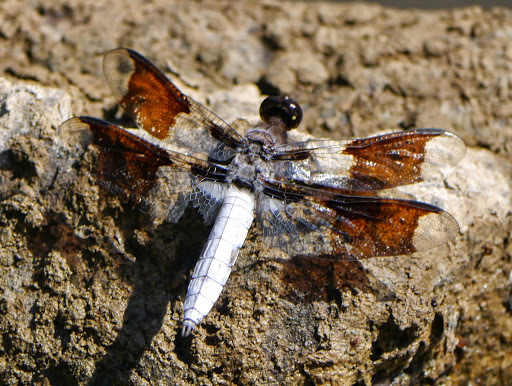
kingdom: Animalia
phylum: Arthropoda
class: Insecta
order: Odonata
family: Libellulidae
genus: Plathemis
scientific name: Plathemis lydia
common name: Common whitetail
